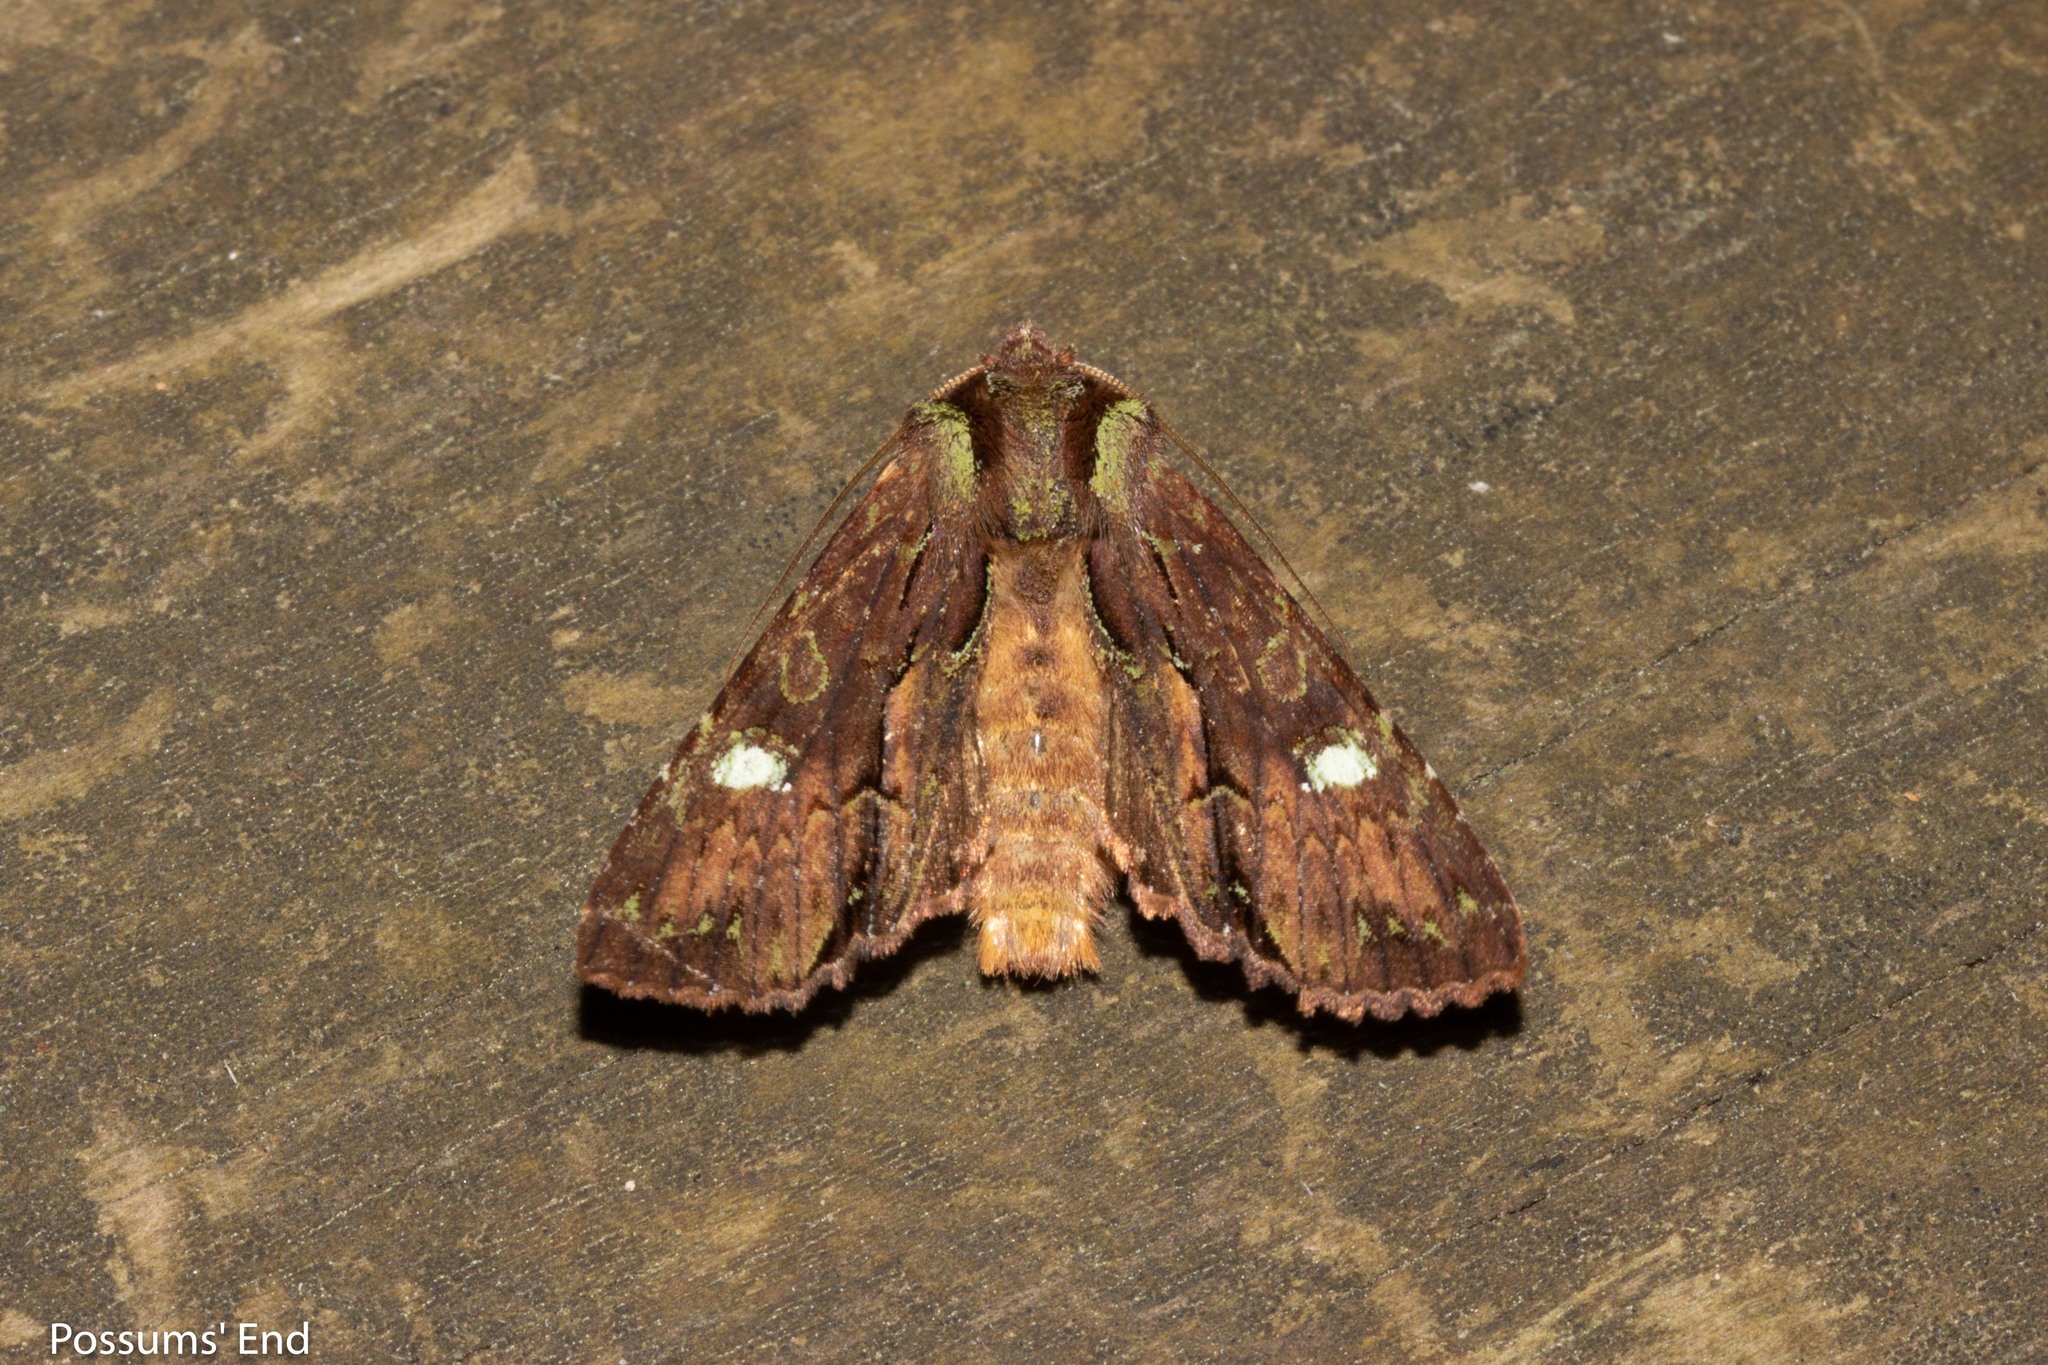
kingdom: Animalia
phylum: Arthropoda
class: Insecta
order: Lepidoptera
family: Noctuidae
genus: Meterana
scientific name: Meterana diatmeta
